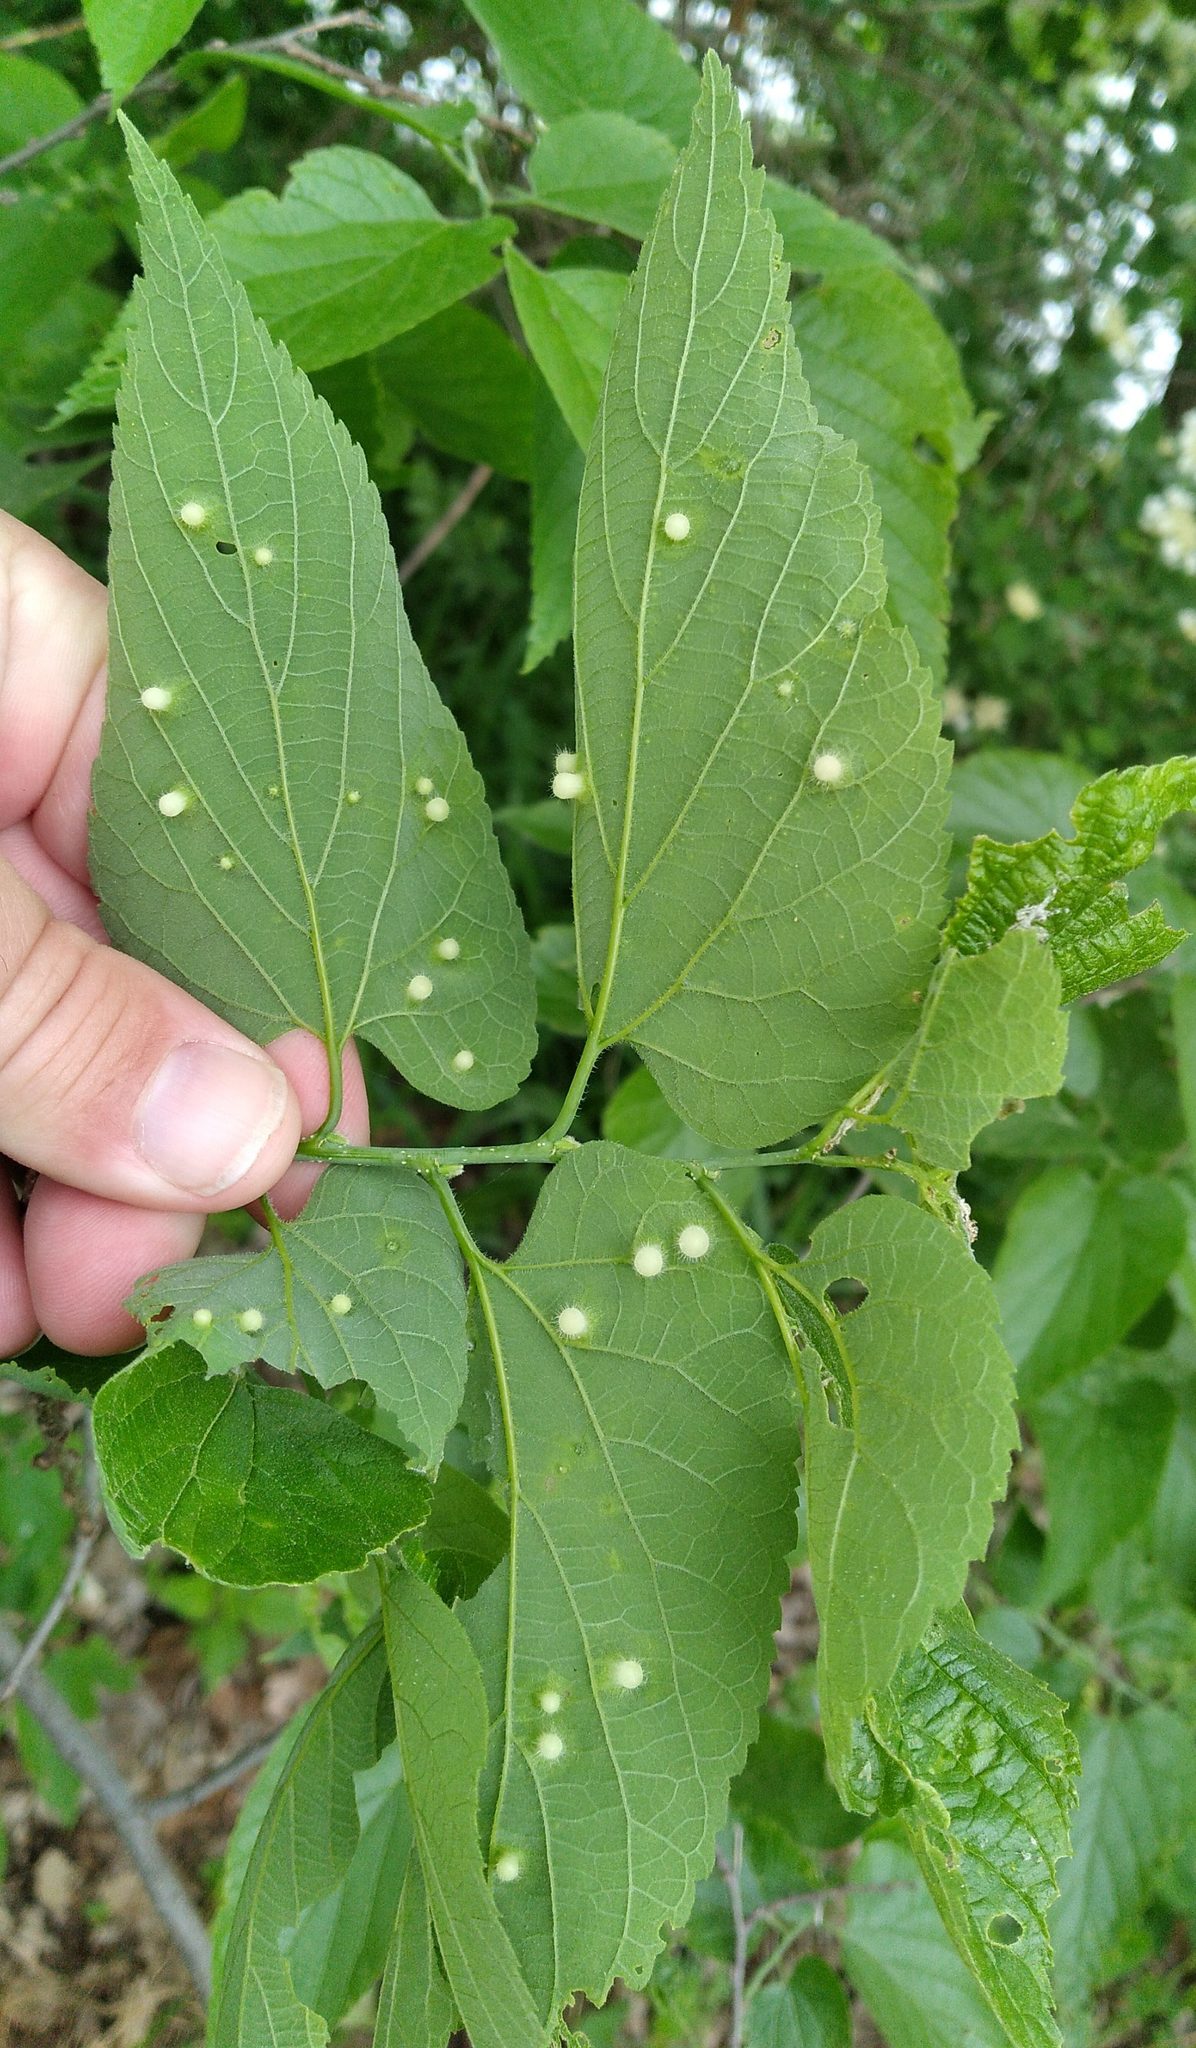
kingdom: Animalia
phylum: Arthropoda
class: Insecta
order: Hemiptera
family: Aphalaridae
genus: Pachypsylla
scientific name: Pachypsylla celtidismamma
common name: Hackberry nipplegall psyllid
